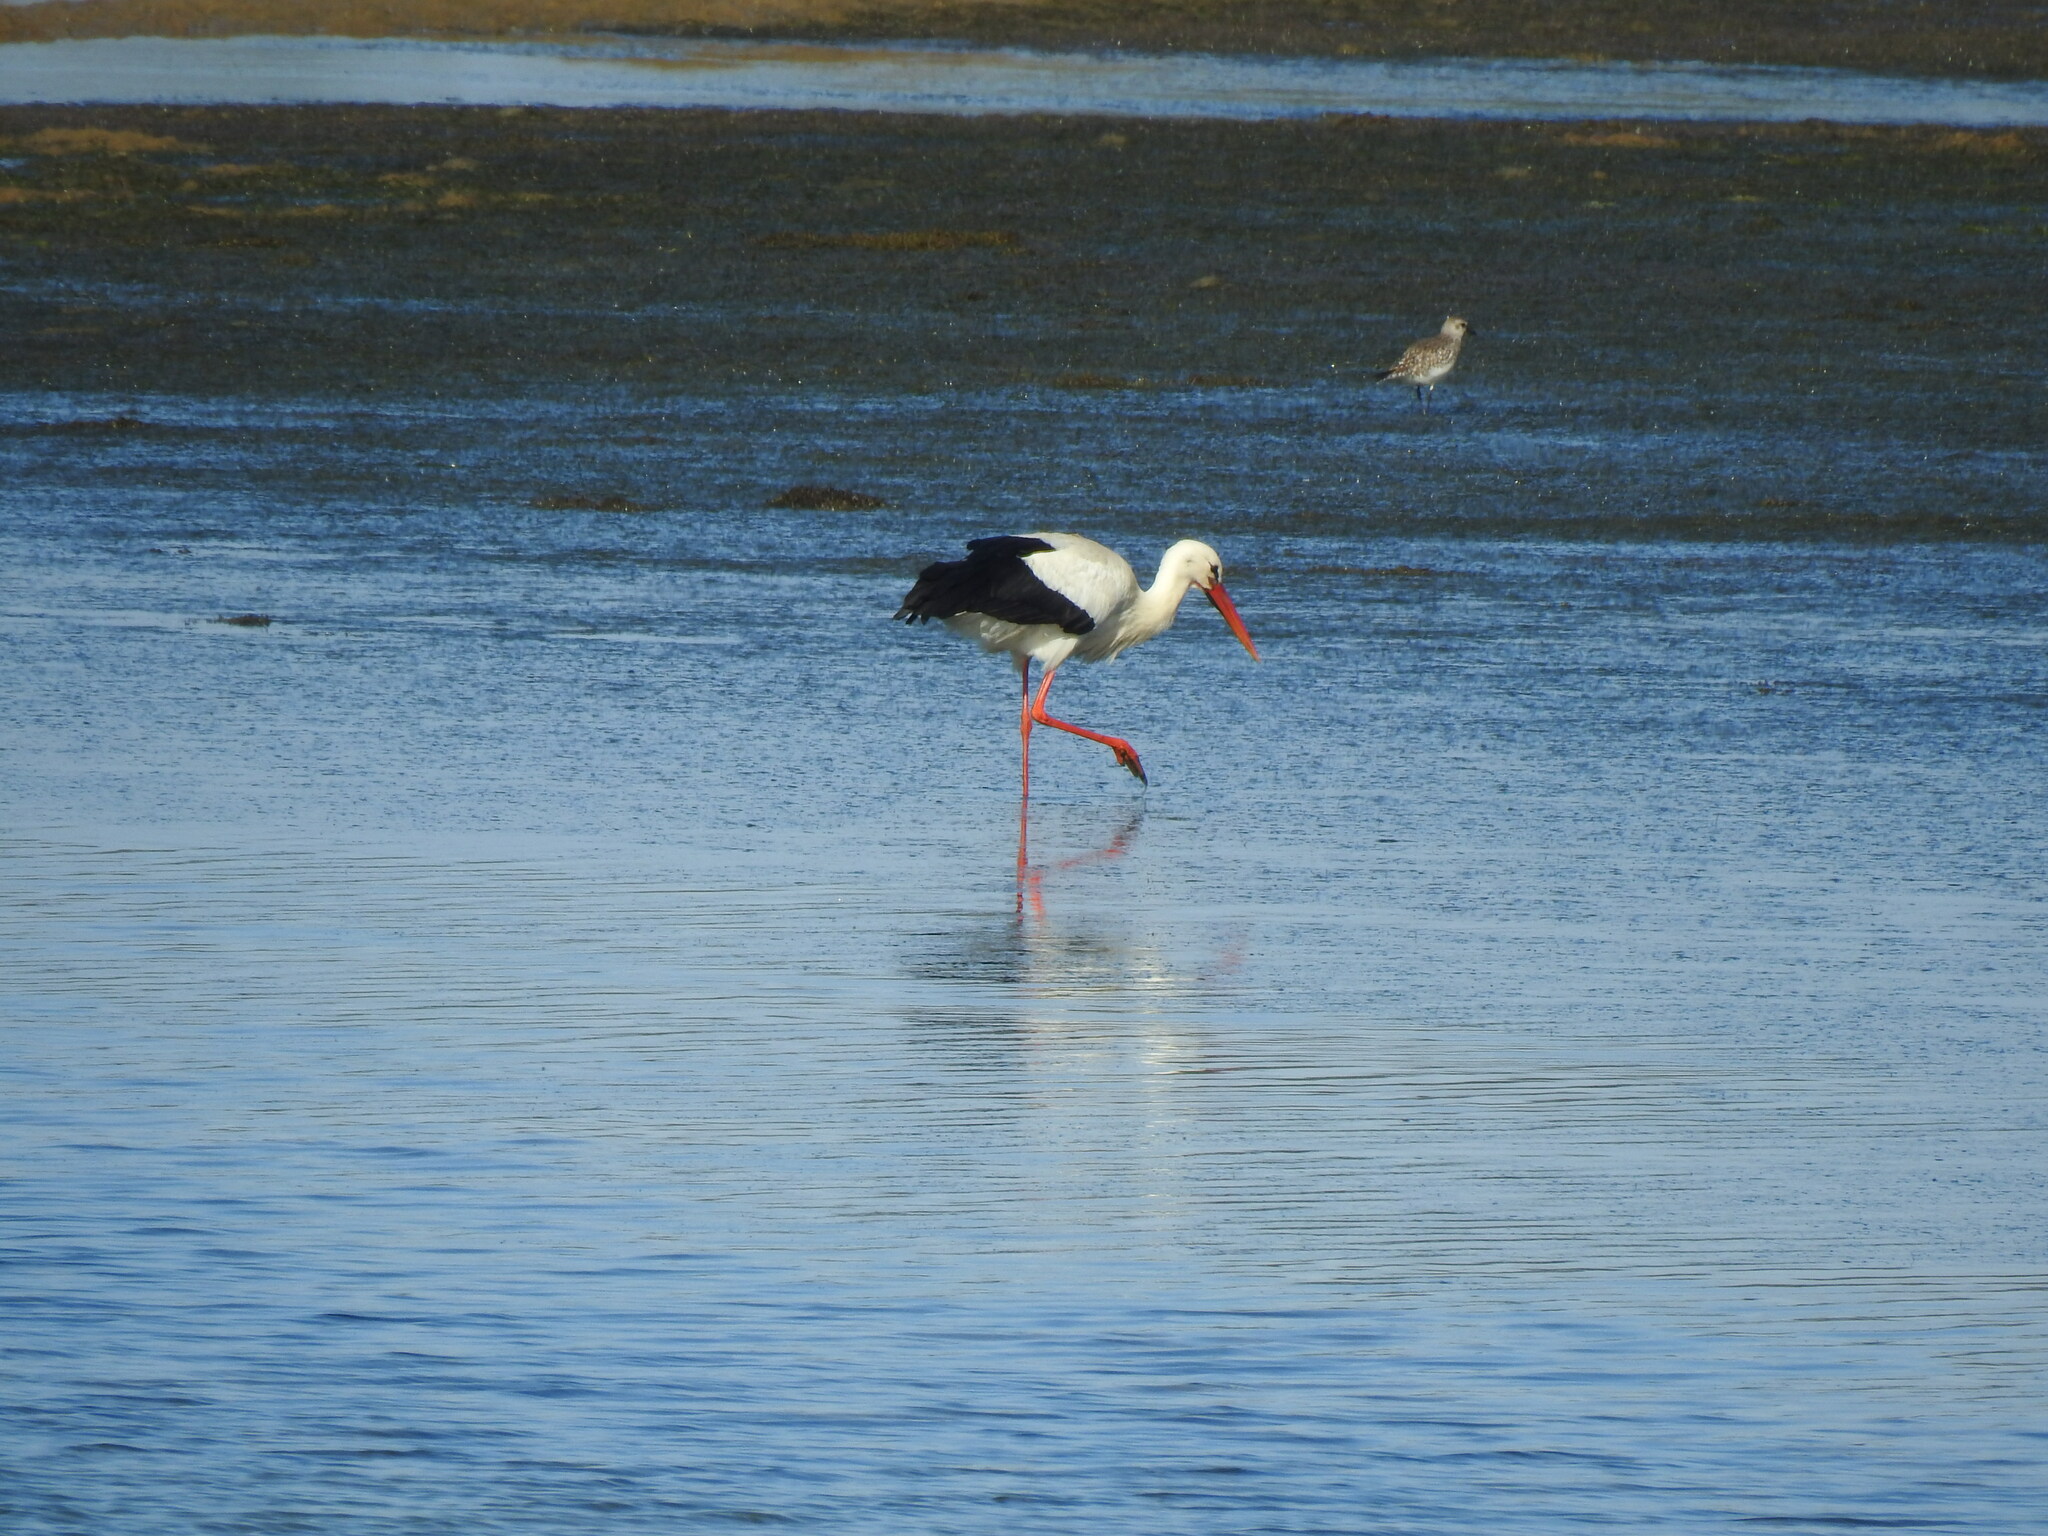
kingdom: Animalia
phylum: Chordata
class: Aves
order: Ciconiiformes
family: Ciconiidae
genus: Ciconia
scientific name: Ciconia ciconia
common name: White stork
